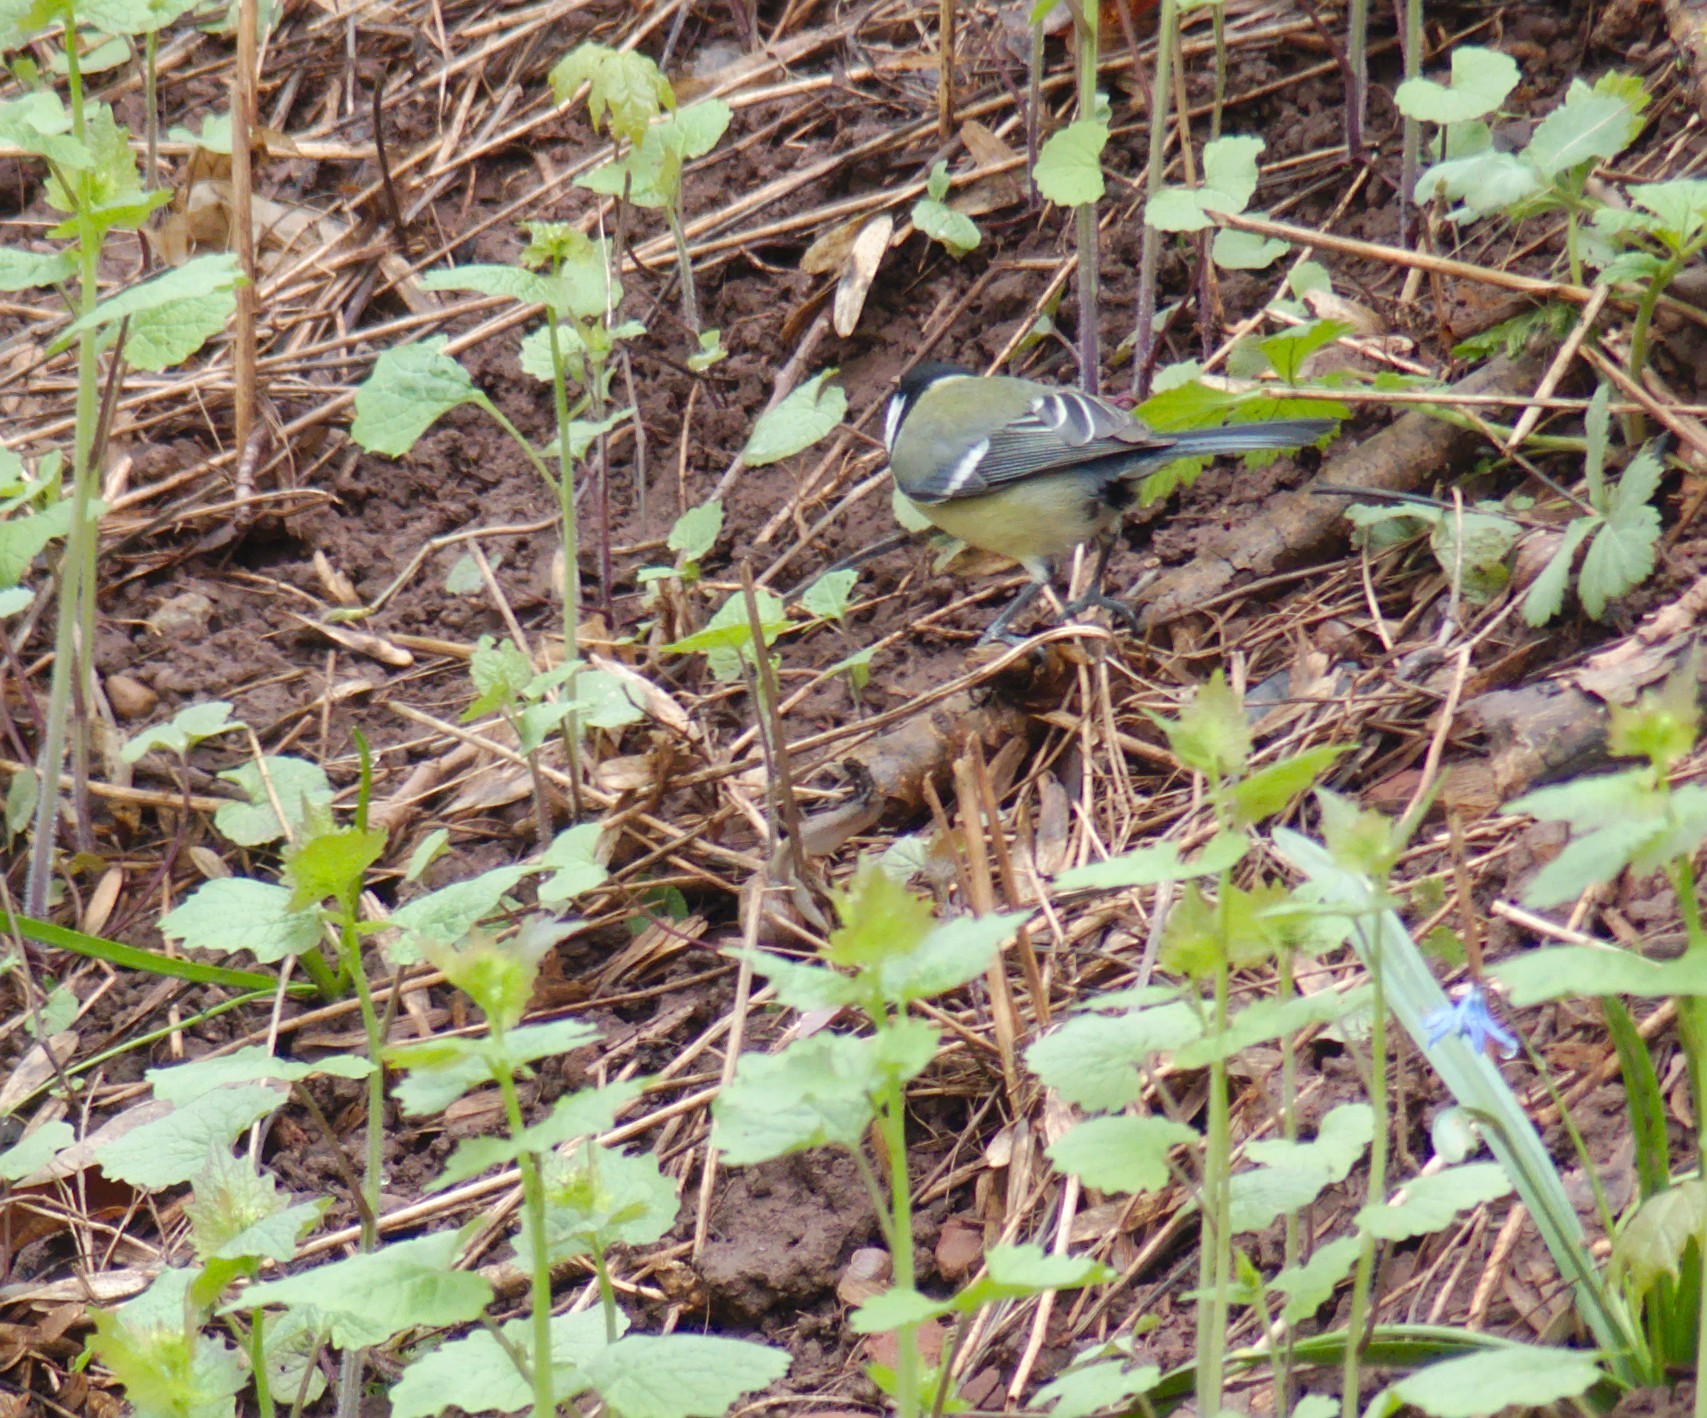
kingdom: Animalia
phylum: Chordata
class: Aves
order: Passeriformes
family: Paridae
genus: Parus
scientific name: Parus major
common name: Great tit
